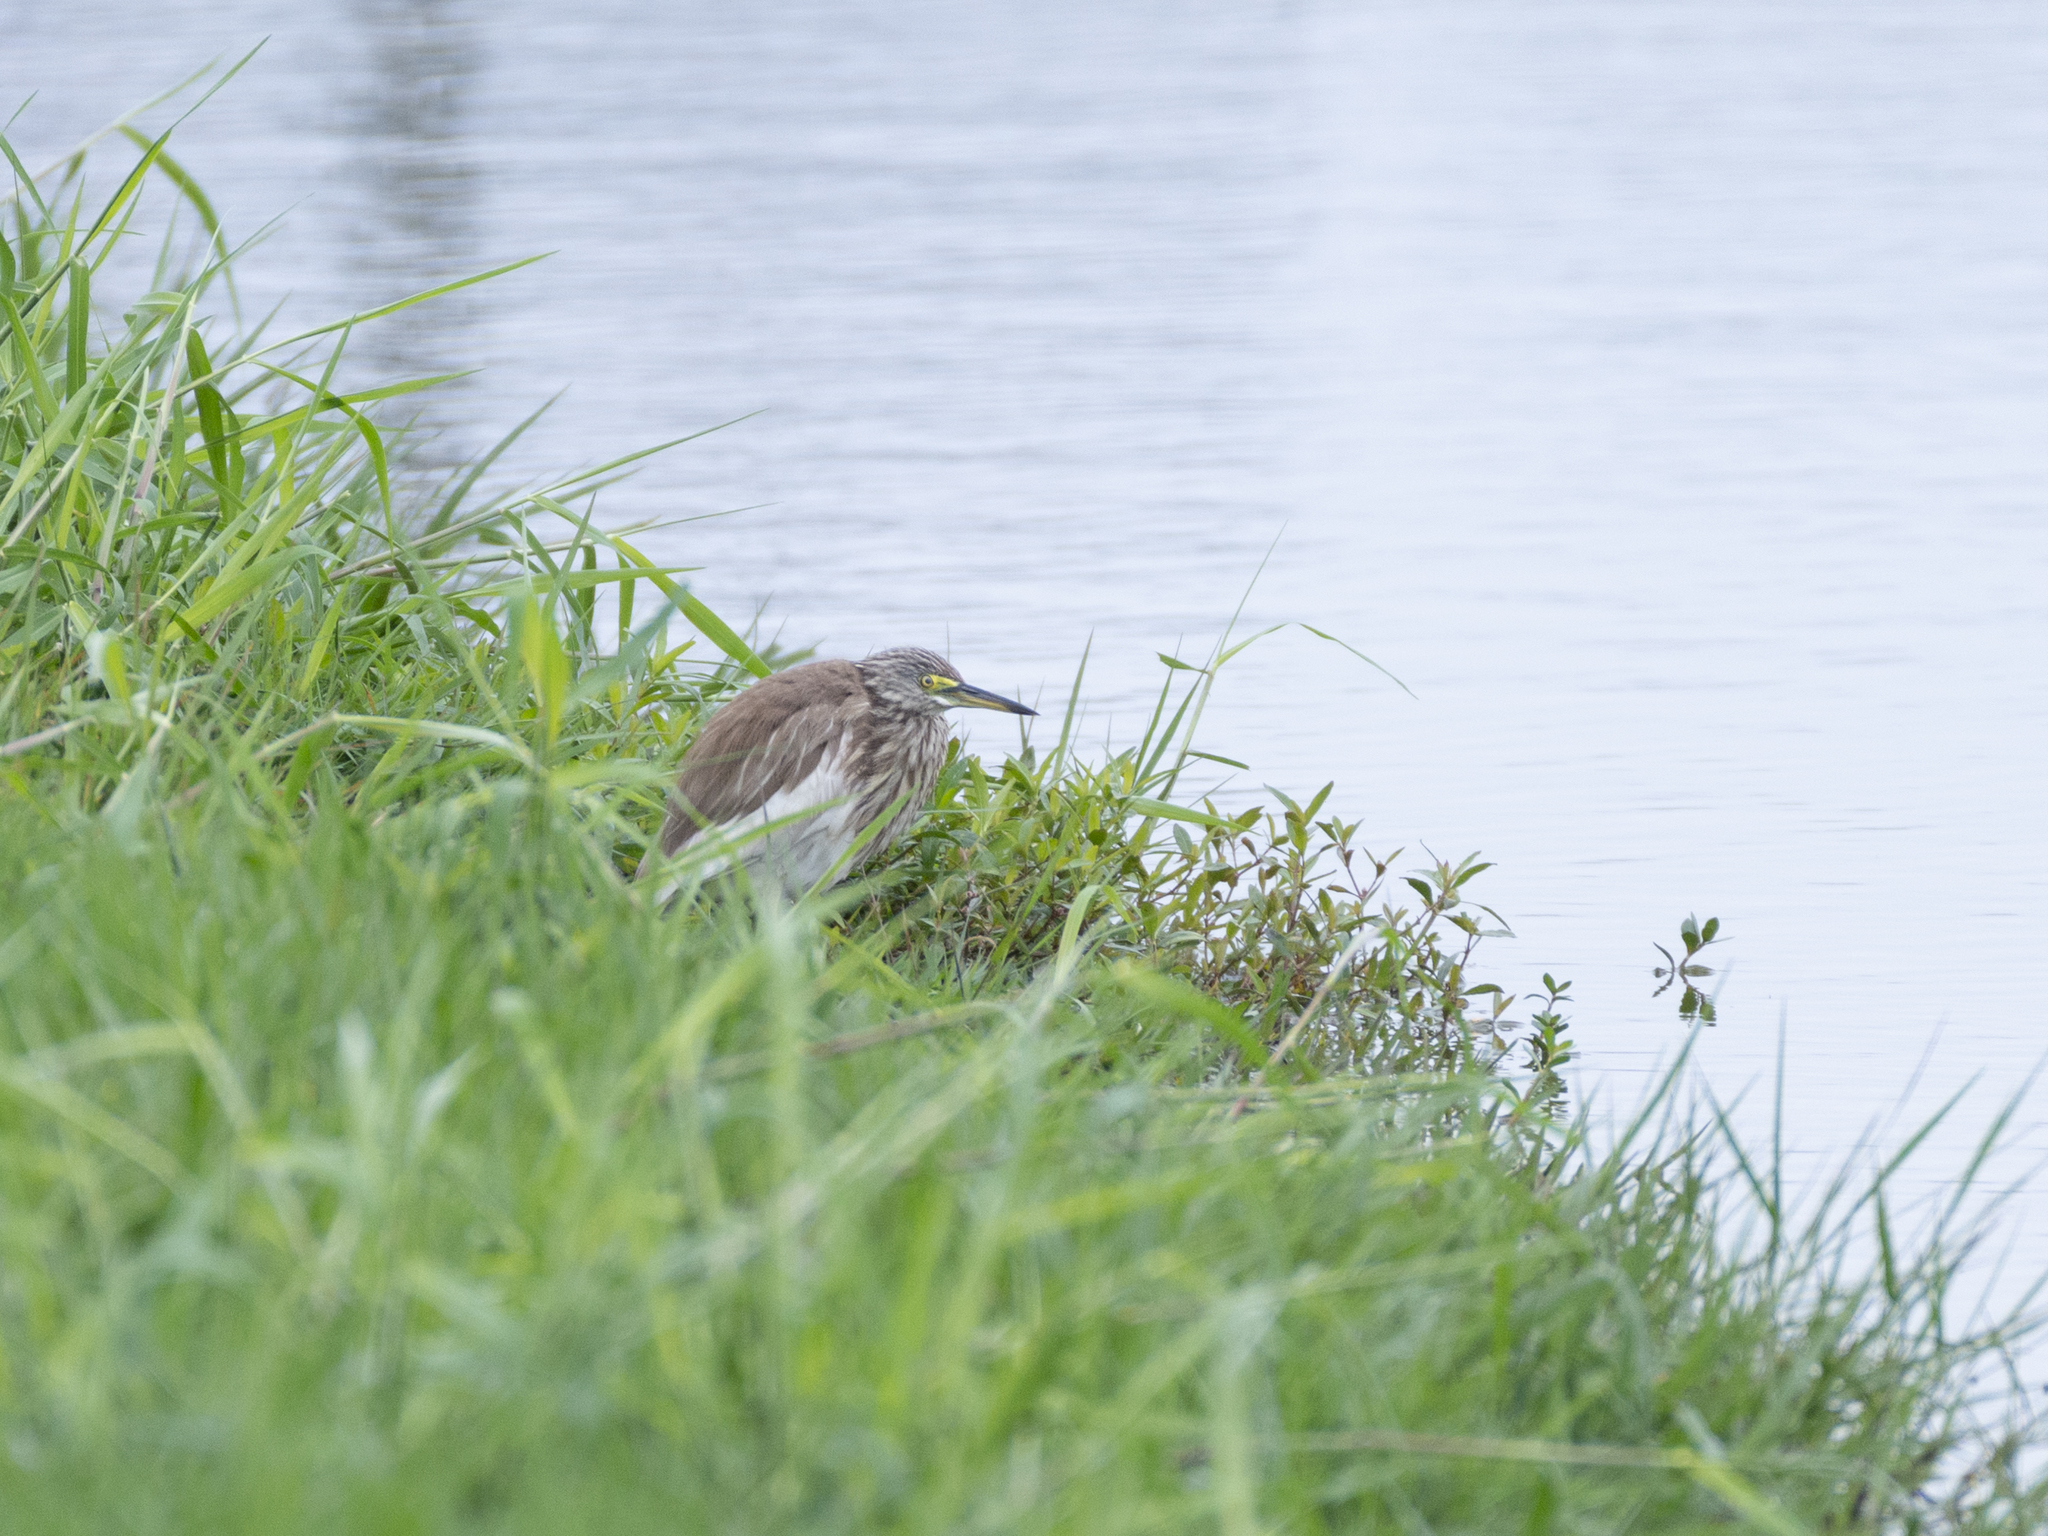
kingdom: Animalia
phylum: Chordata
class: Aves
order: Pelecaniformes
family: Ardeidae
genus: Ardeola
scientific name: Ardeola bacchus
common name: Chinese pond heron
